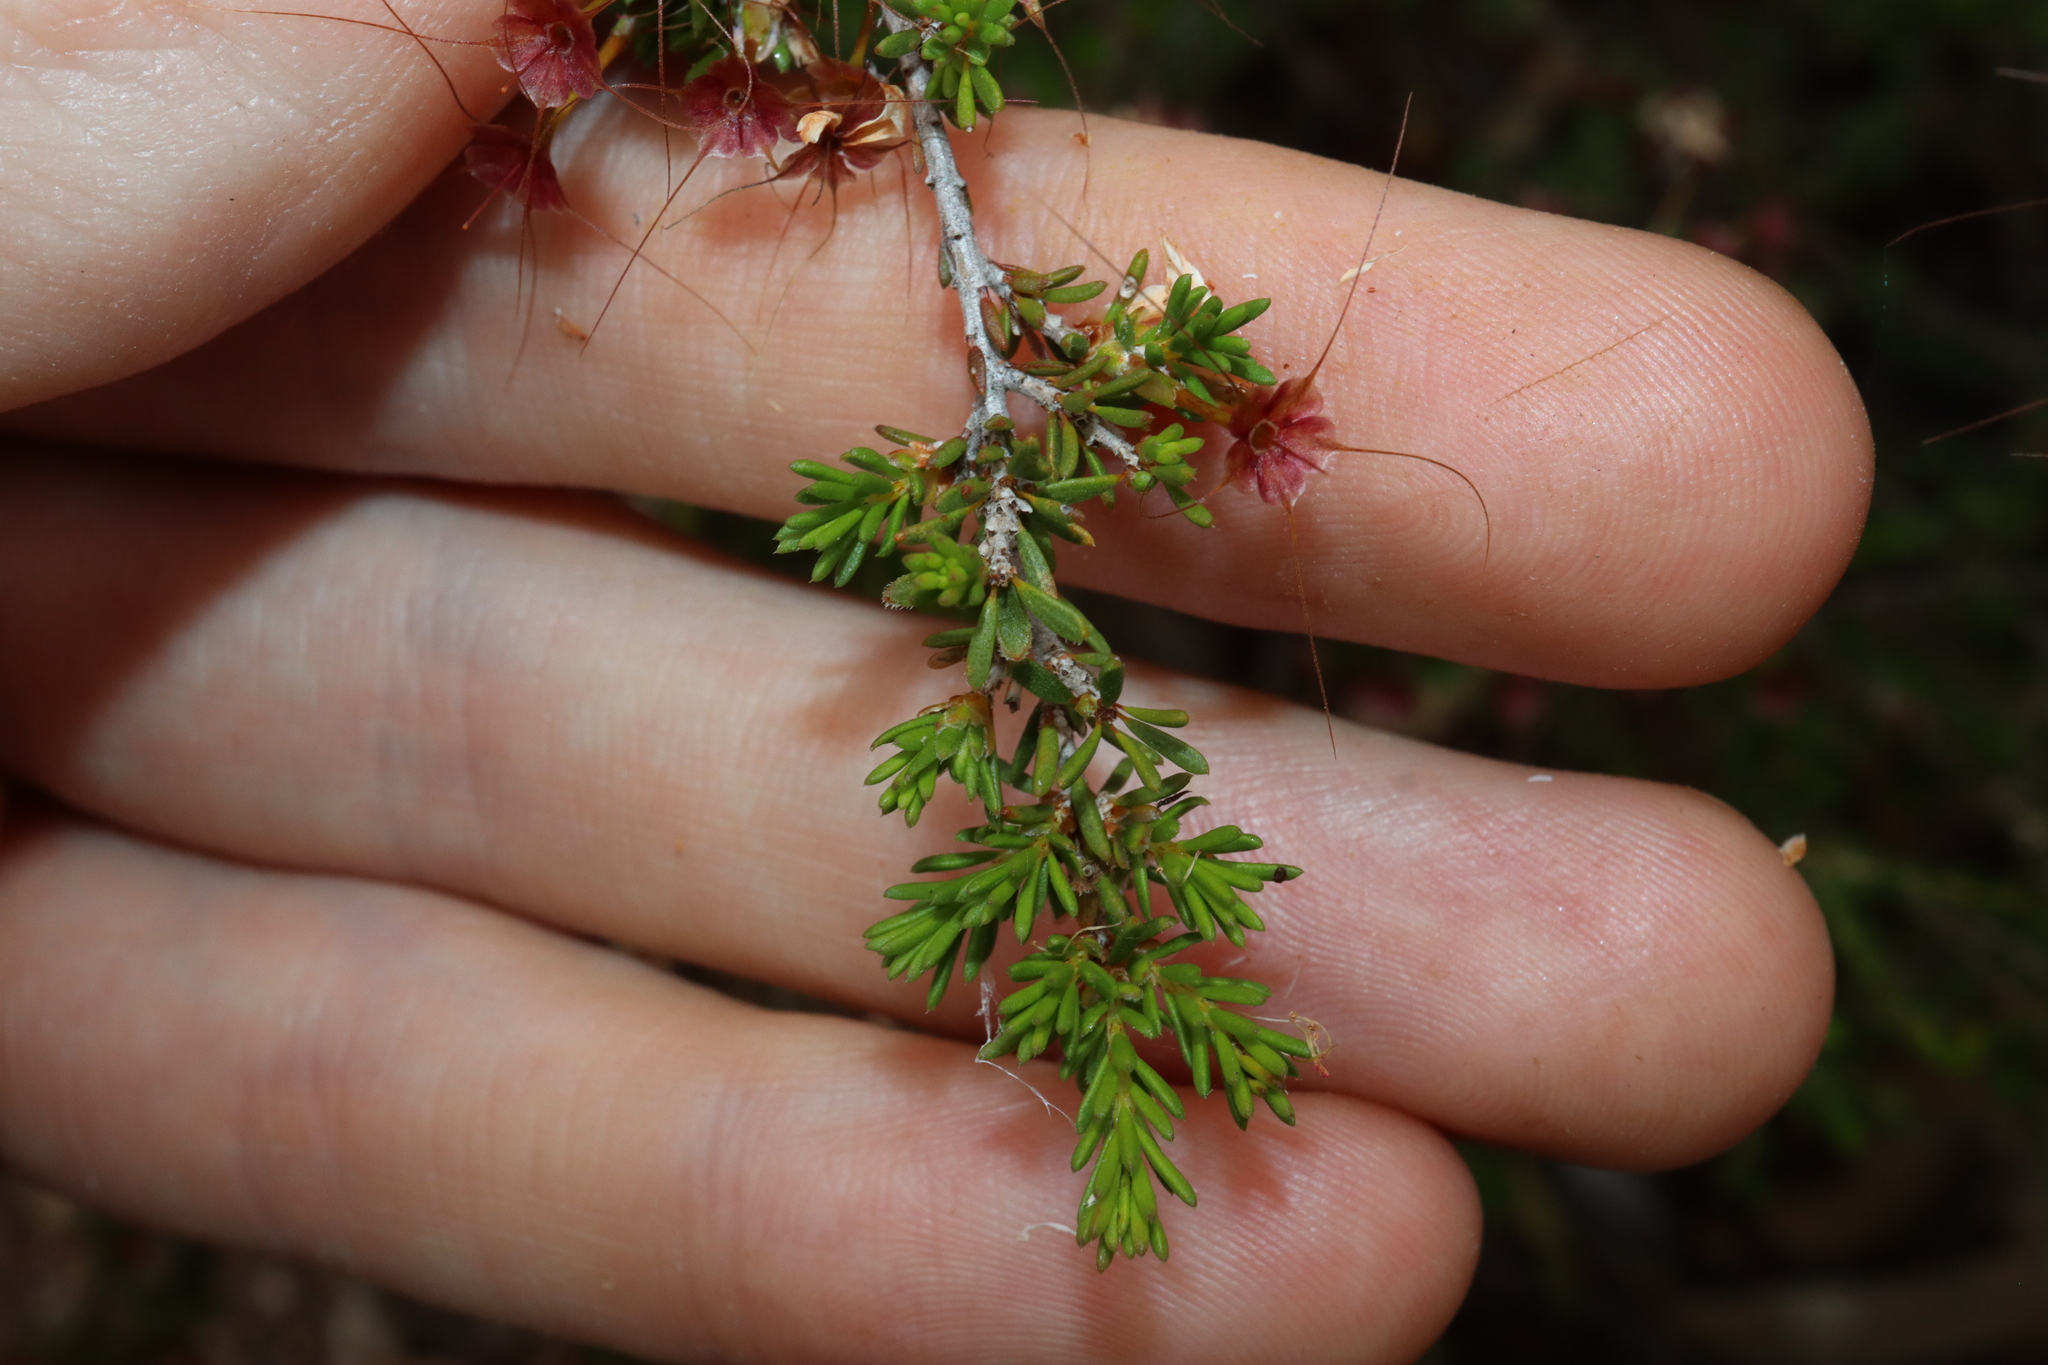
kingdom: Plantae
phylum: Tracheophyta
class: Magnoliopsida
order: Myrtales
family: Myrtaceae
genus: Calytrix
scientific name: Calytrix tetragona
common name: Common fringe myrtle
